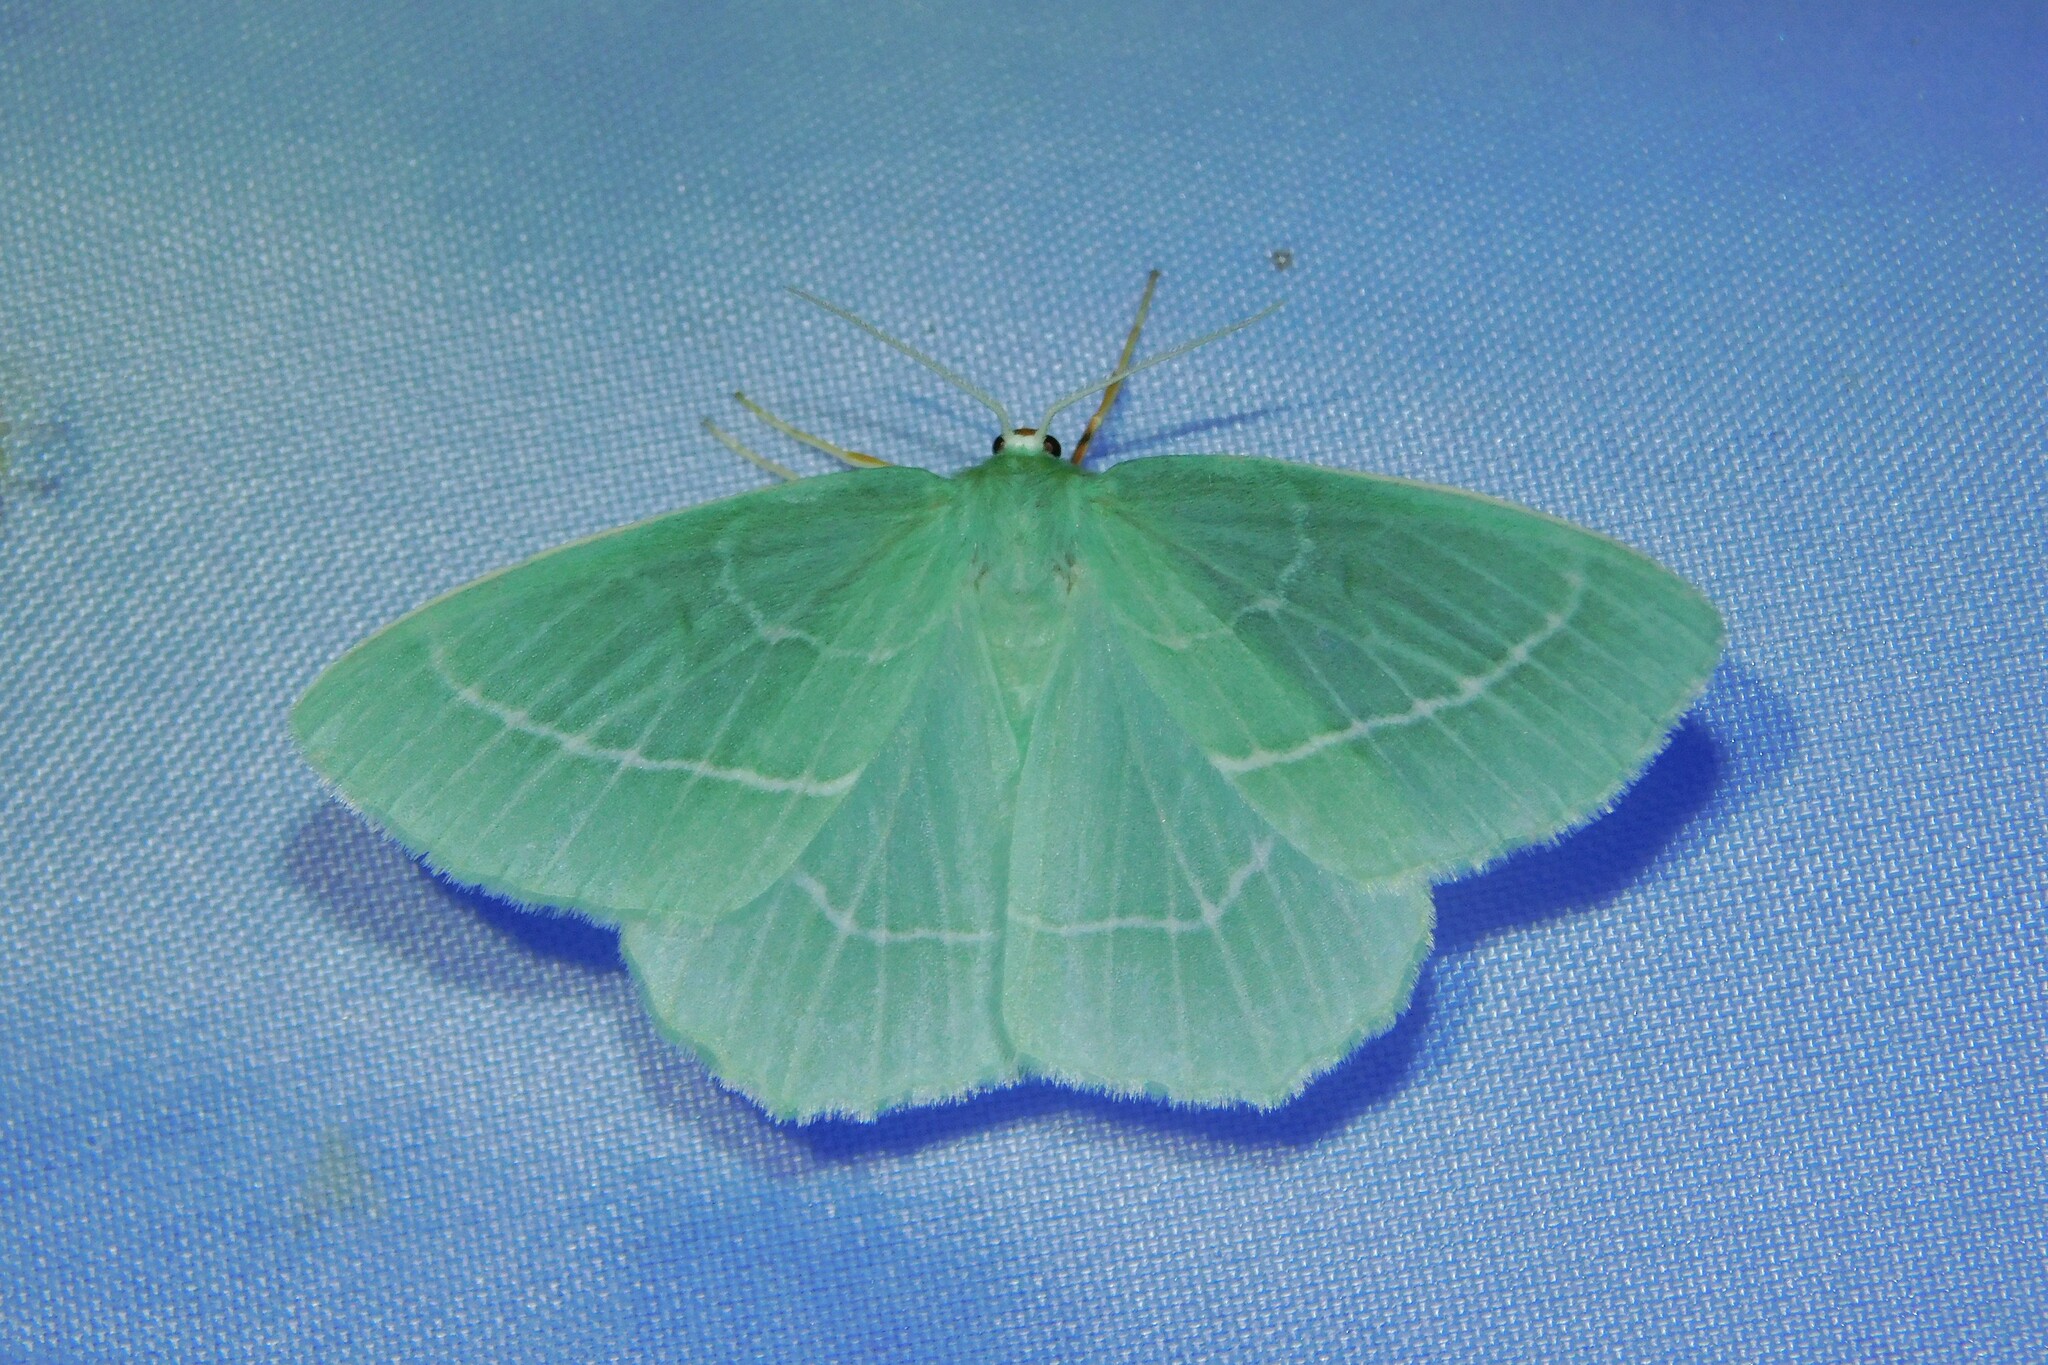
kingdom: Animalia
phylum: Arthropoda
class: Insecta
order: Lepidoptera
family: Geometridae
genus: Hemistola
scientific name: Hemistola chrysoprasaria
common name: Small emerald
